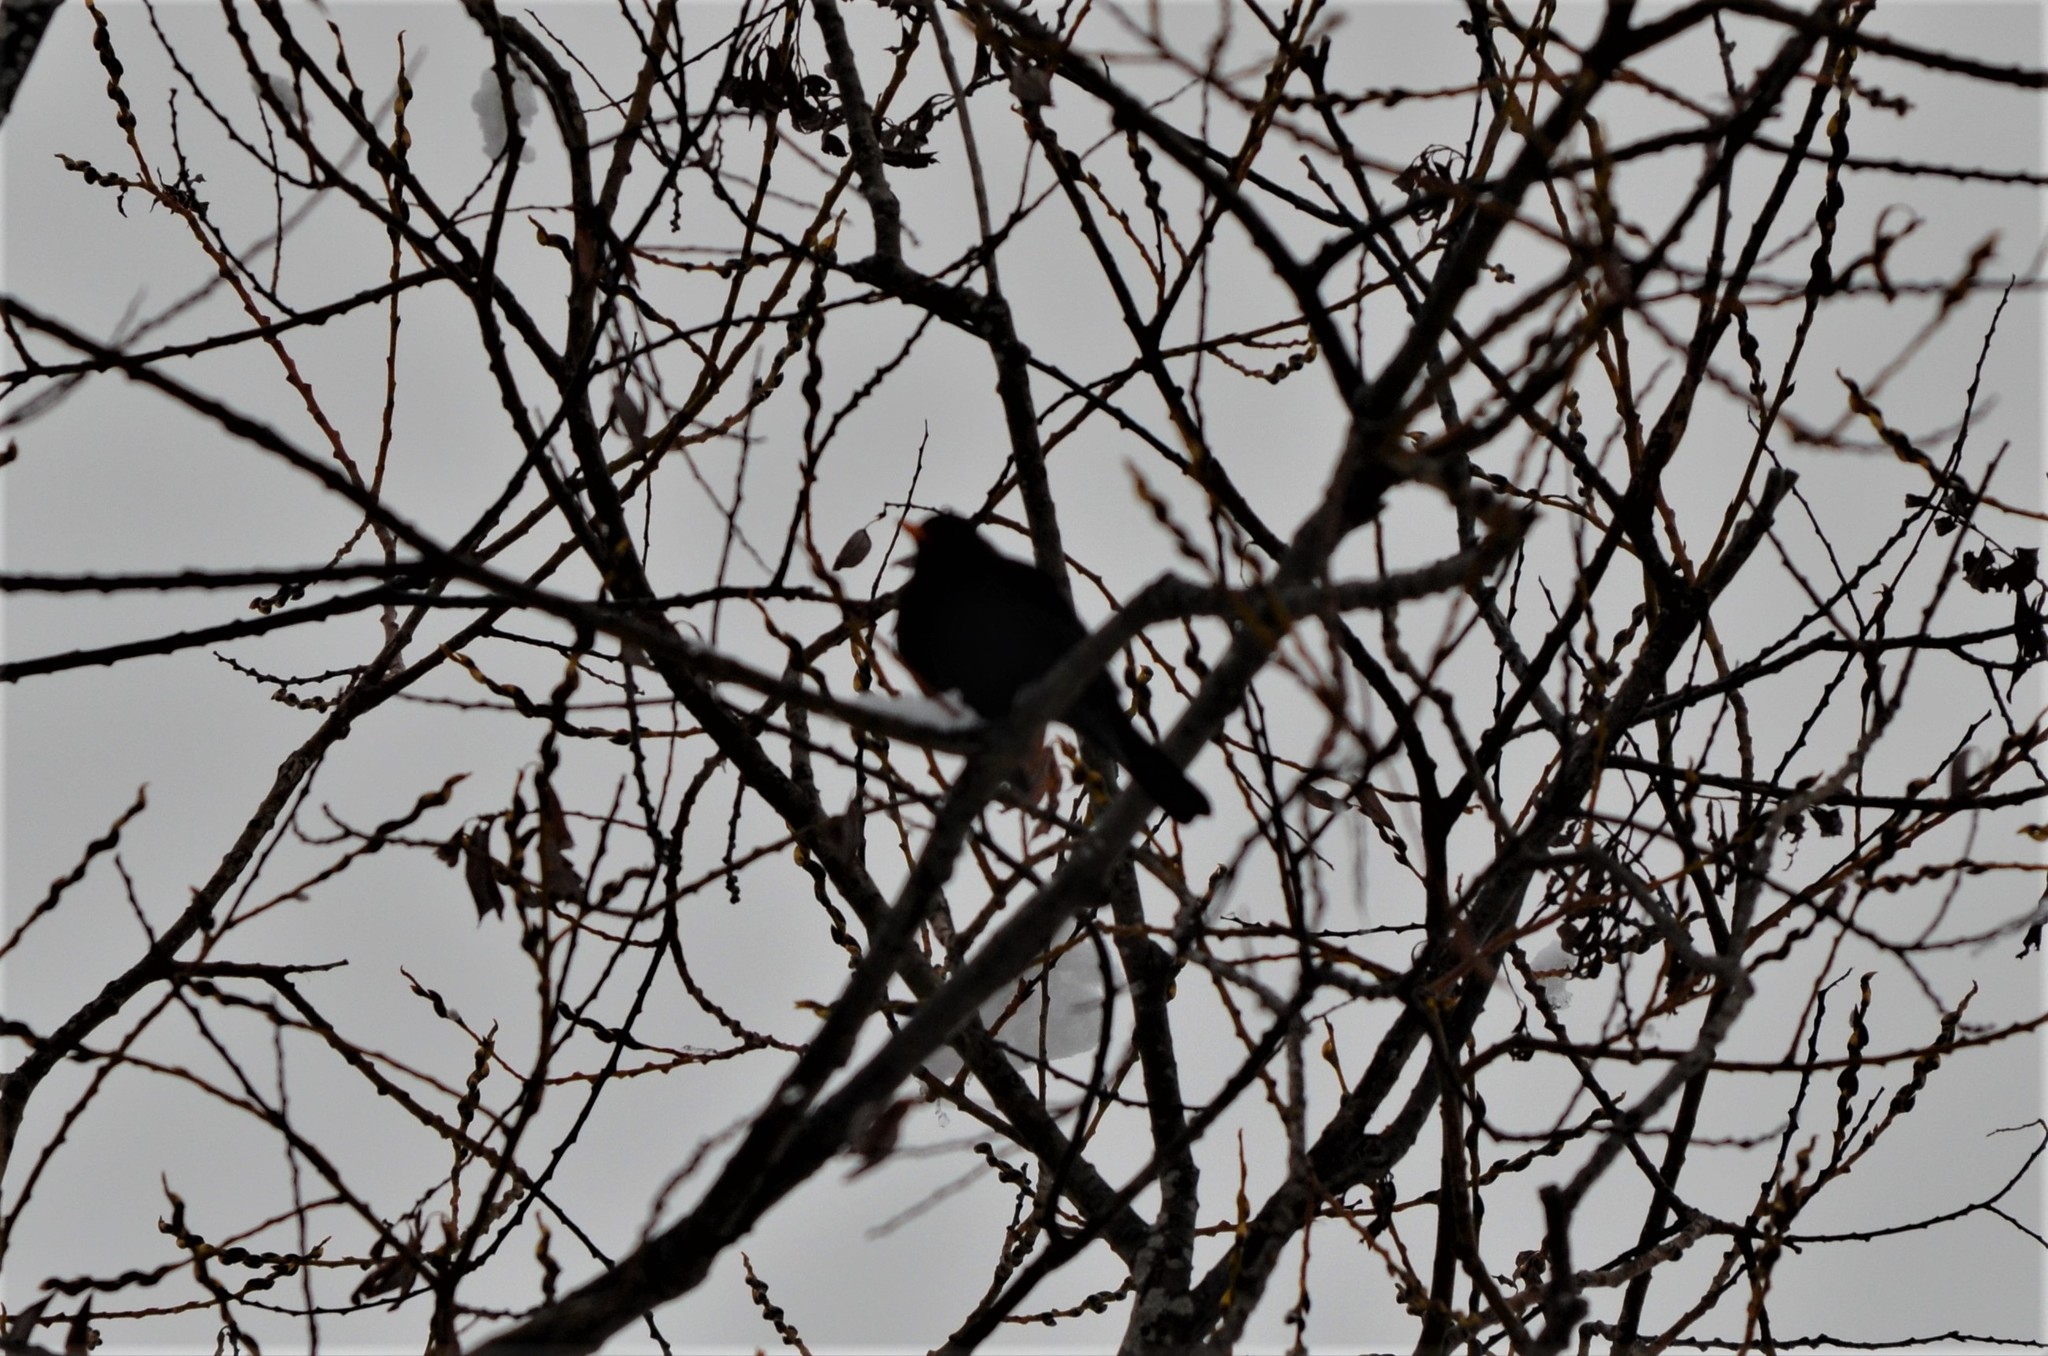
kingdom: Animalia
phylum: Chordata
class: Aves
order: Passeriformes
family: Turdidae
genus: Turdus
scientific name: Turdus merula
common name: Common blackbird
